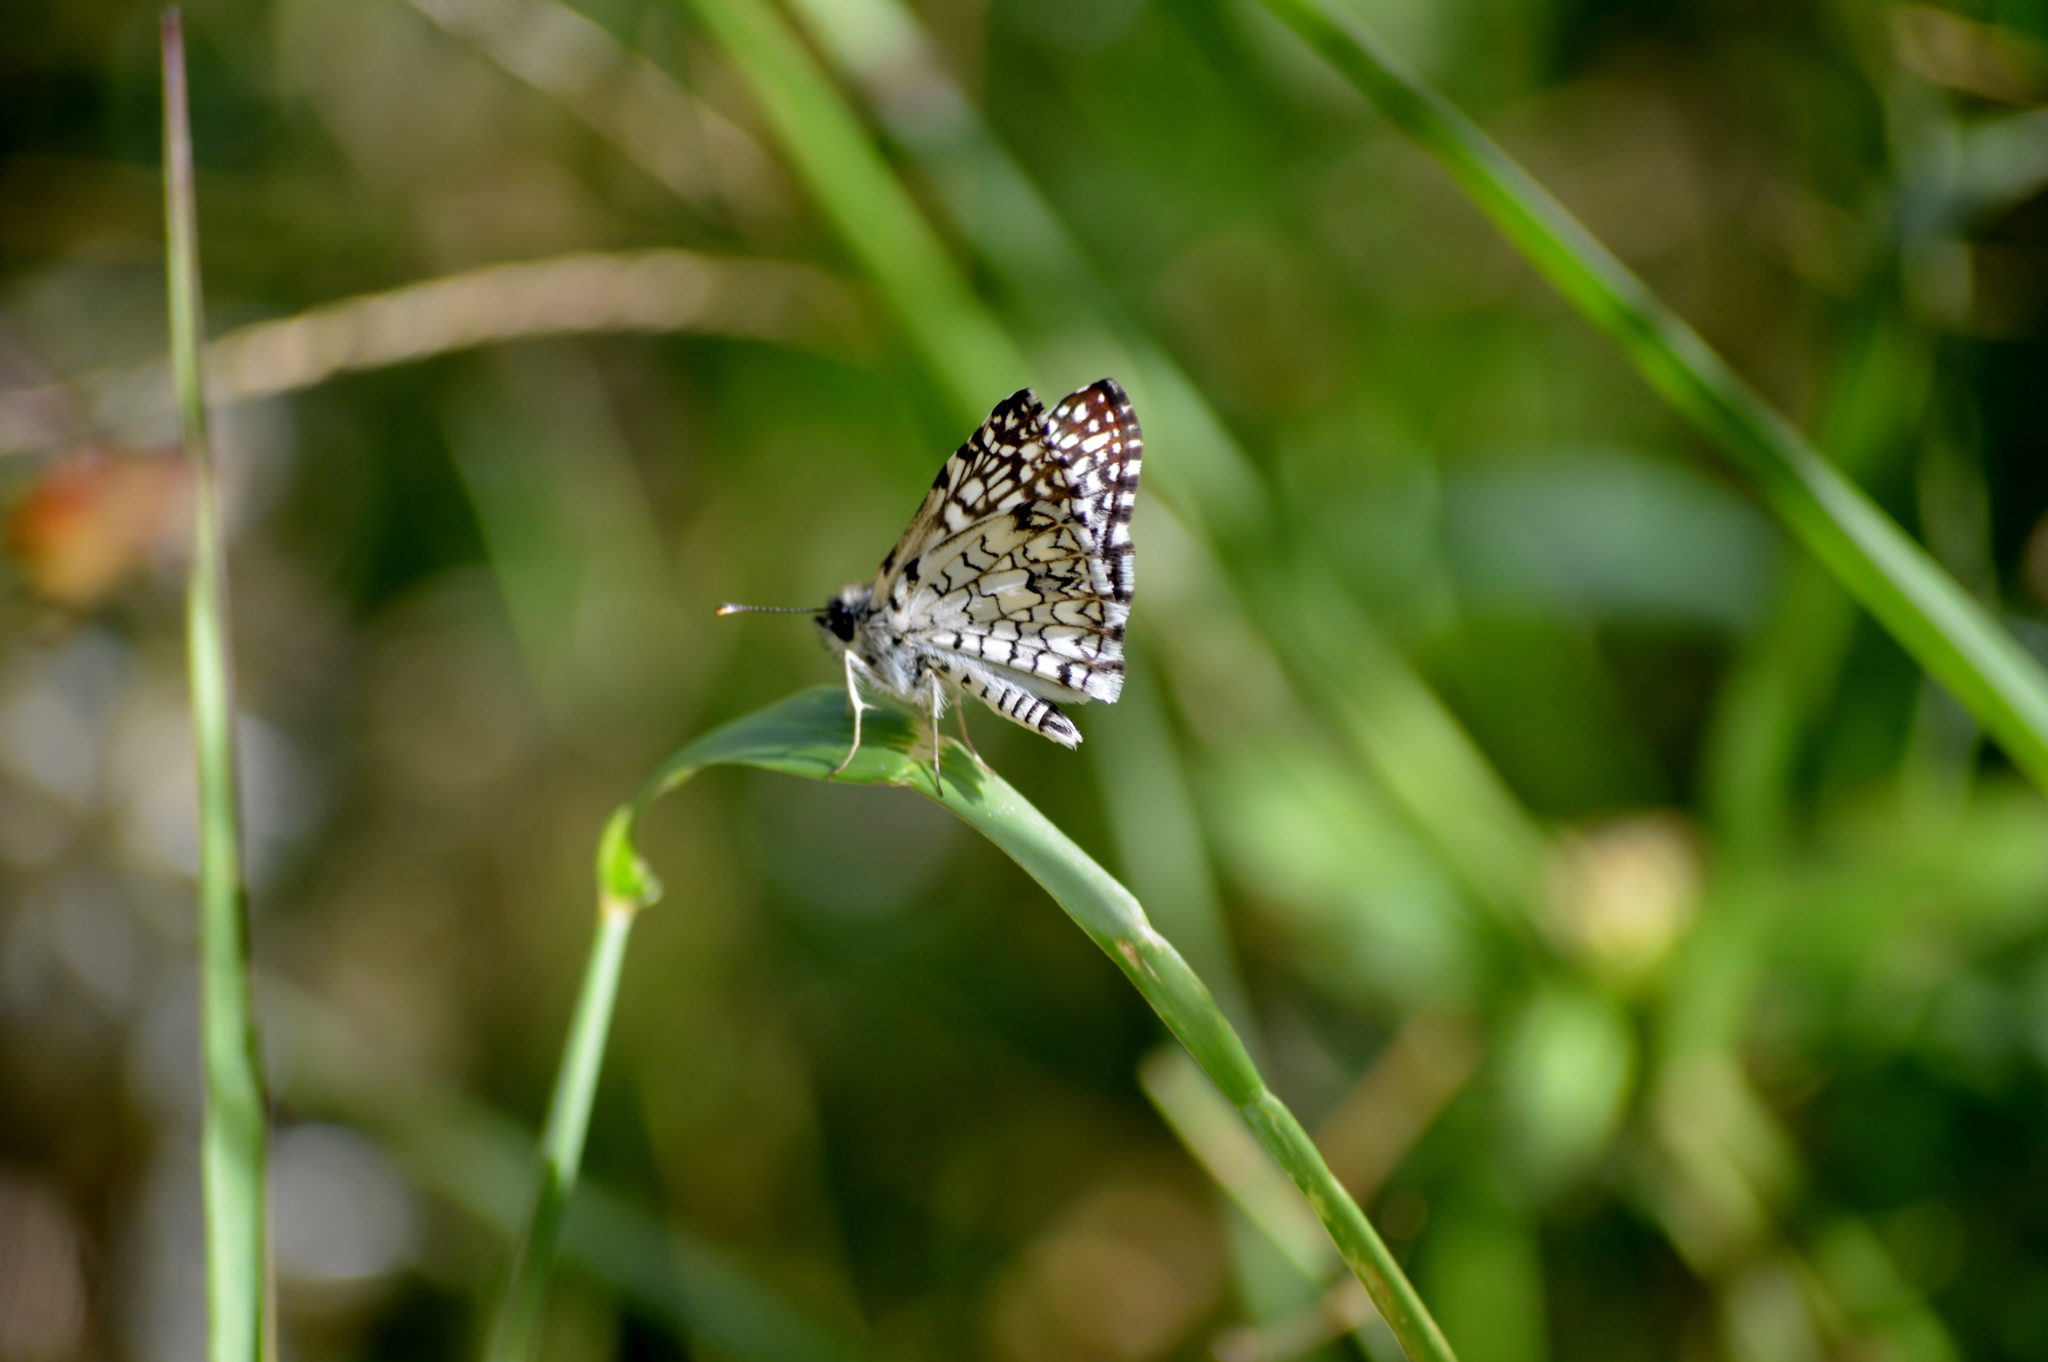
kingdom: Animalia
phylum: Arthropoda
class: Insecta
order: Lepidoptera
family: Hesperiidae
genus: Pyrgus
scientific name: Pyrgus oileus
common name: Tropical checkered-skipper
